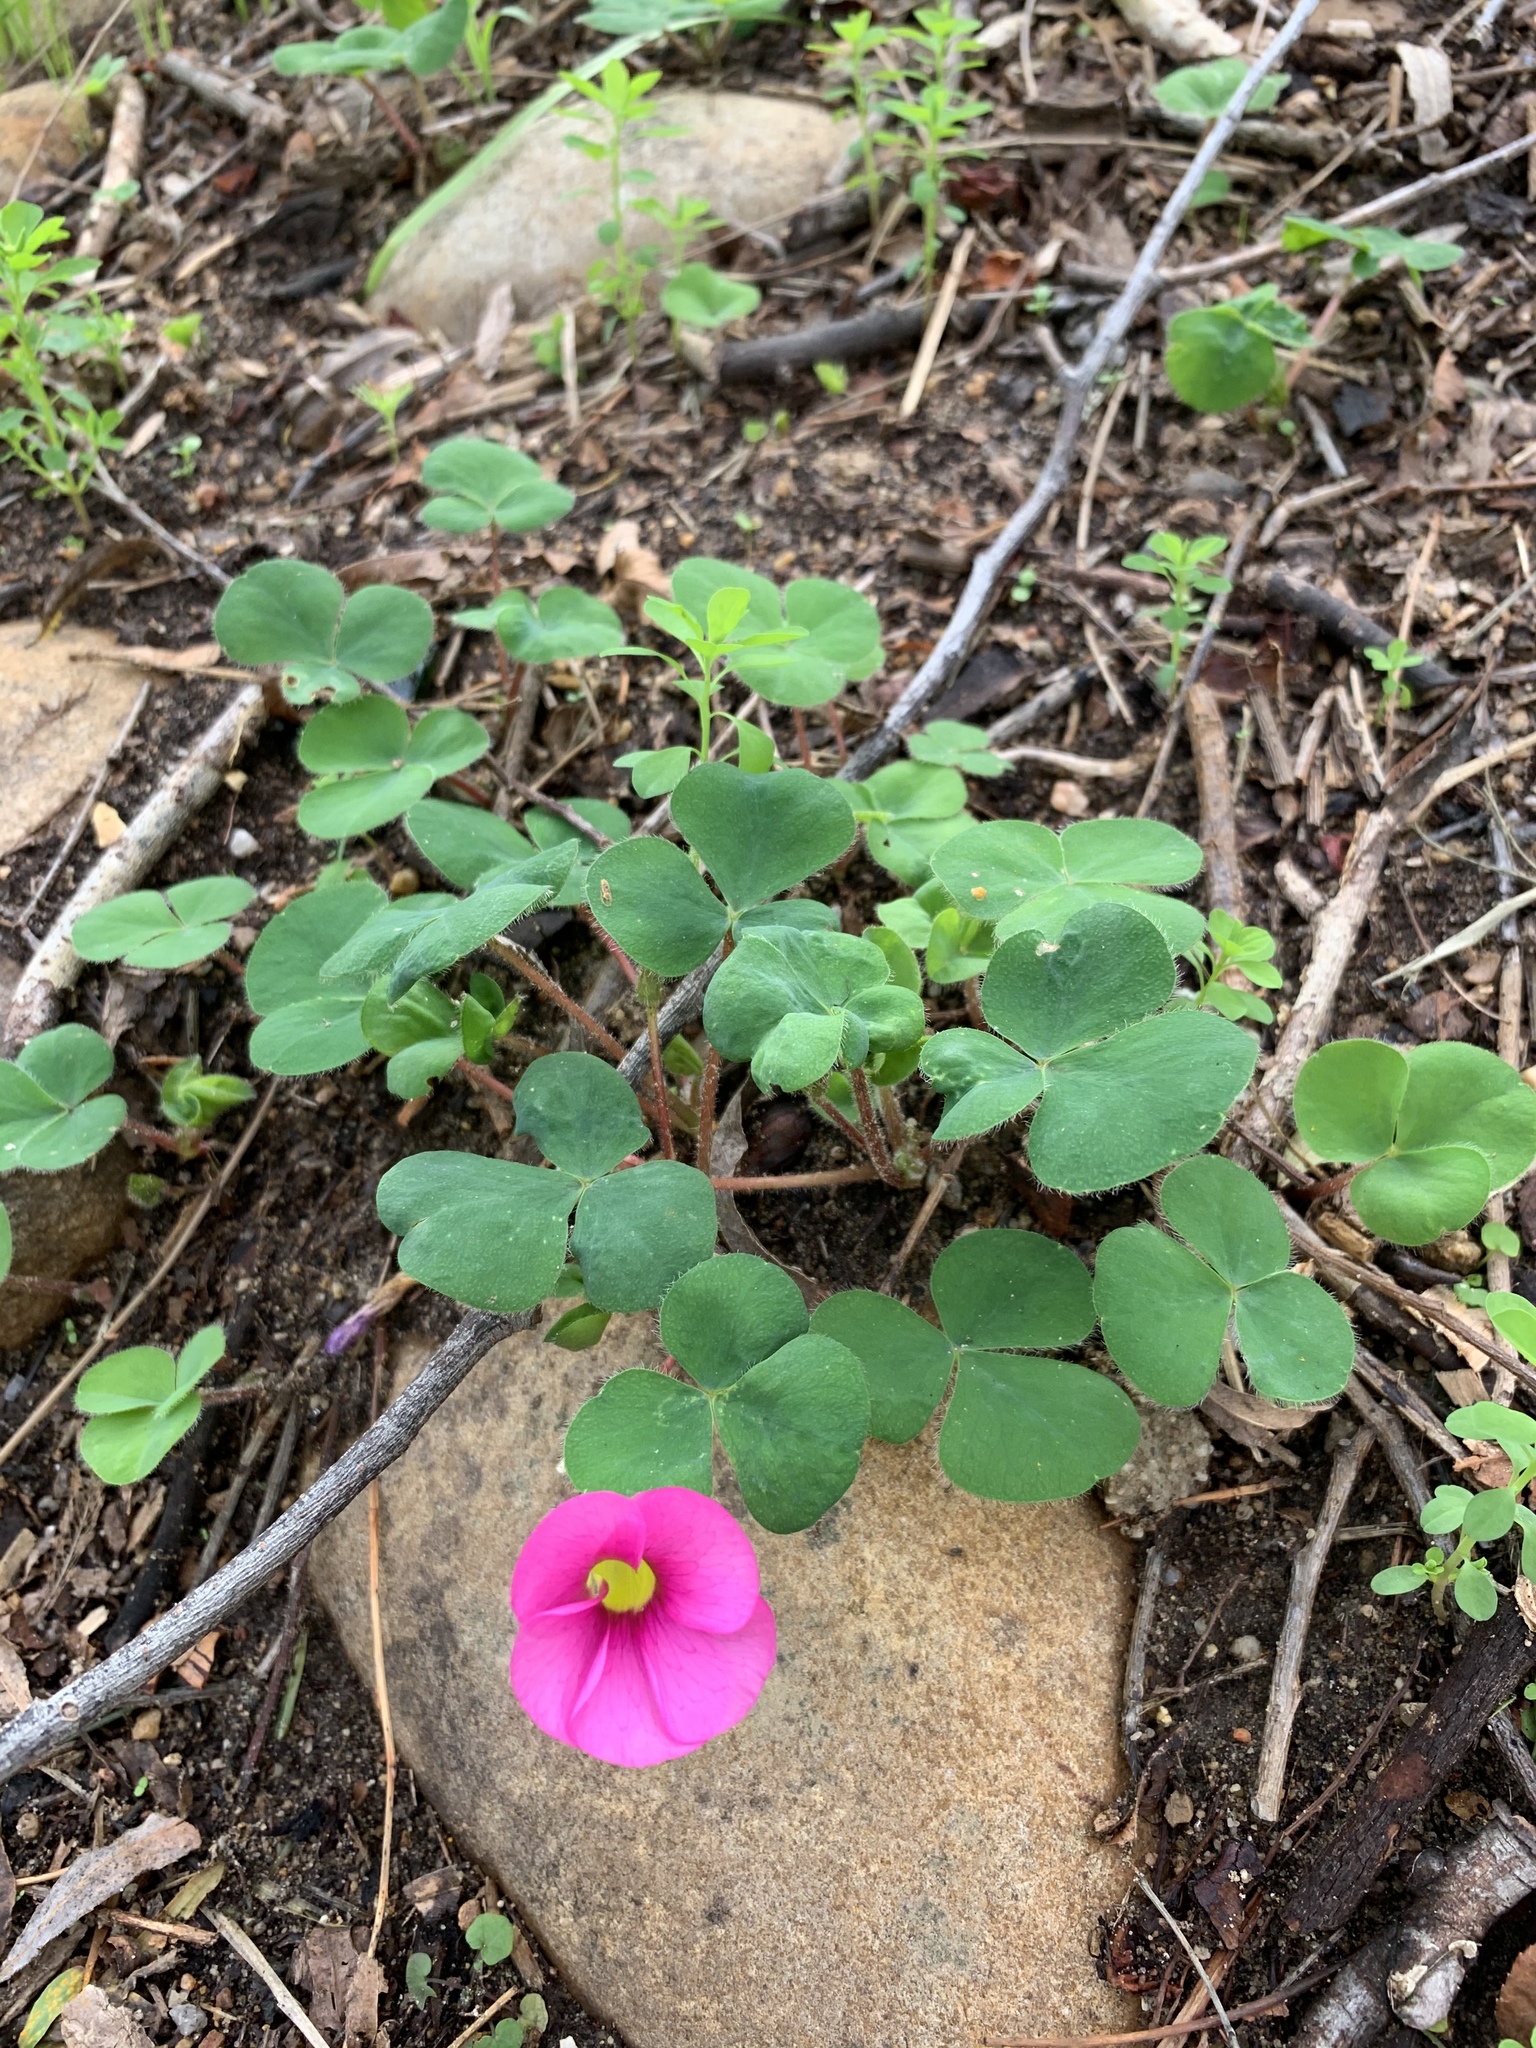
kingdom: Plantae
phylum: Tracheophyta
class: Magnoliopsida
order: Oxalidales
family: Oxalidaceae
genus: Oxalis
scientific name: Oxalis purpurea
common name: Purple woodsorrel
